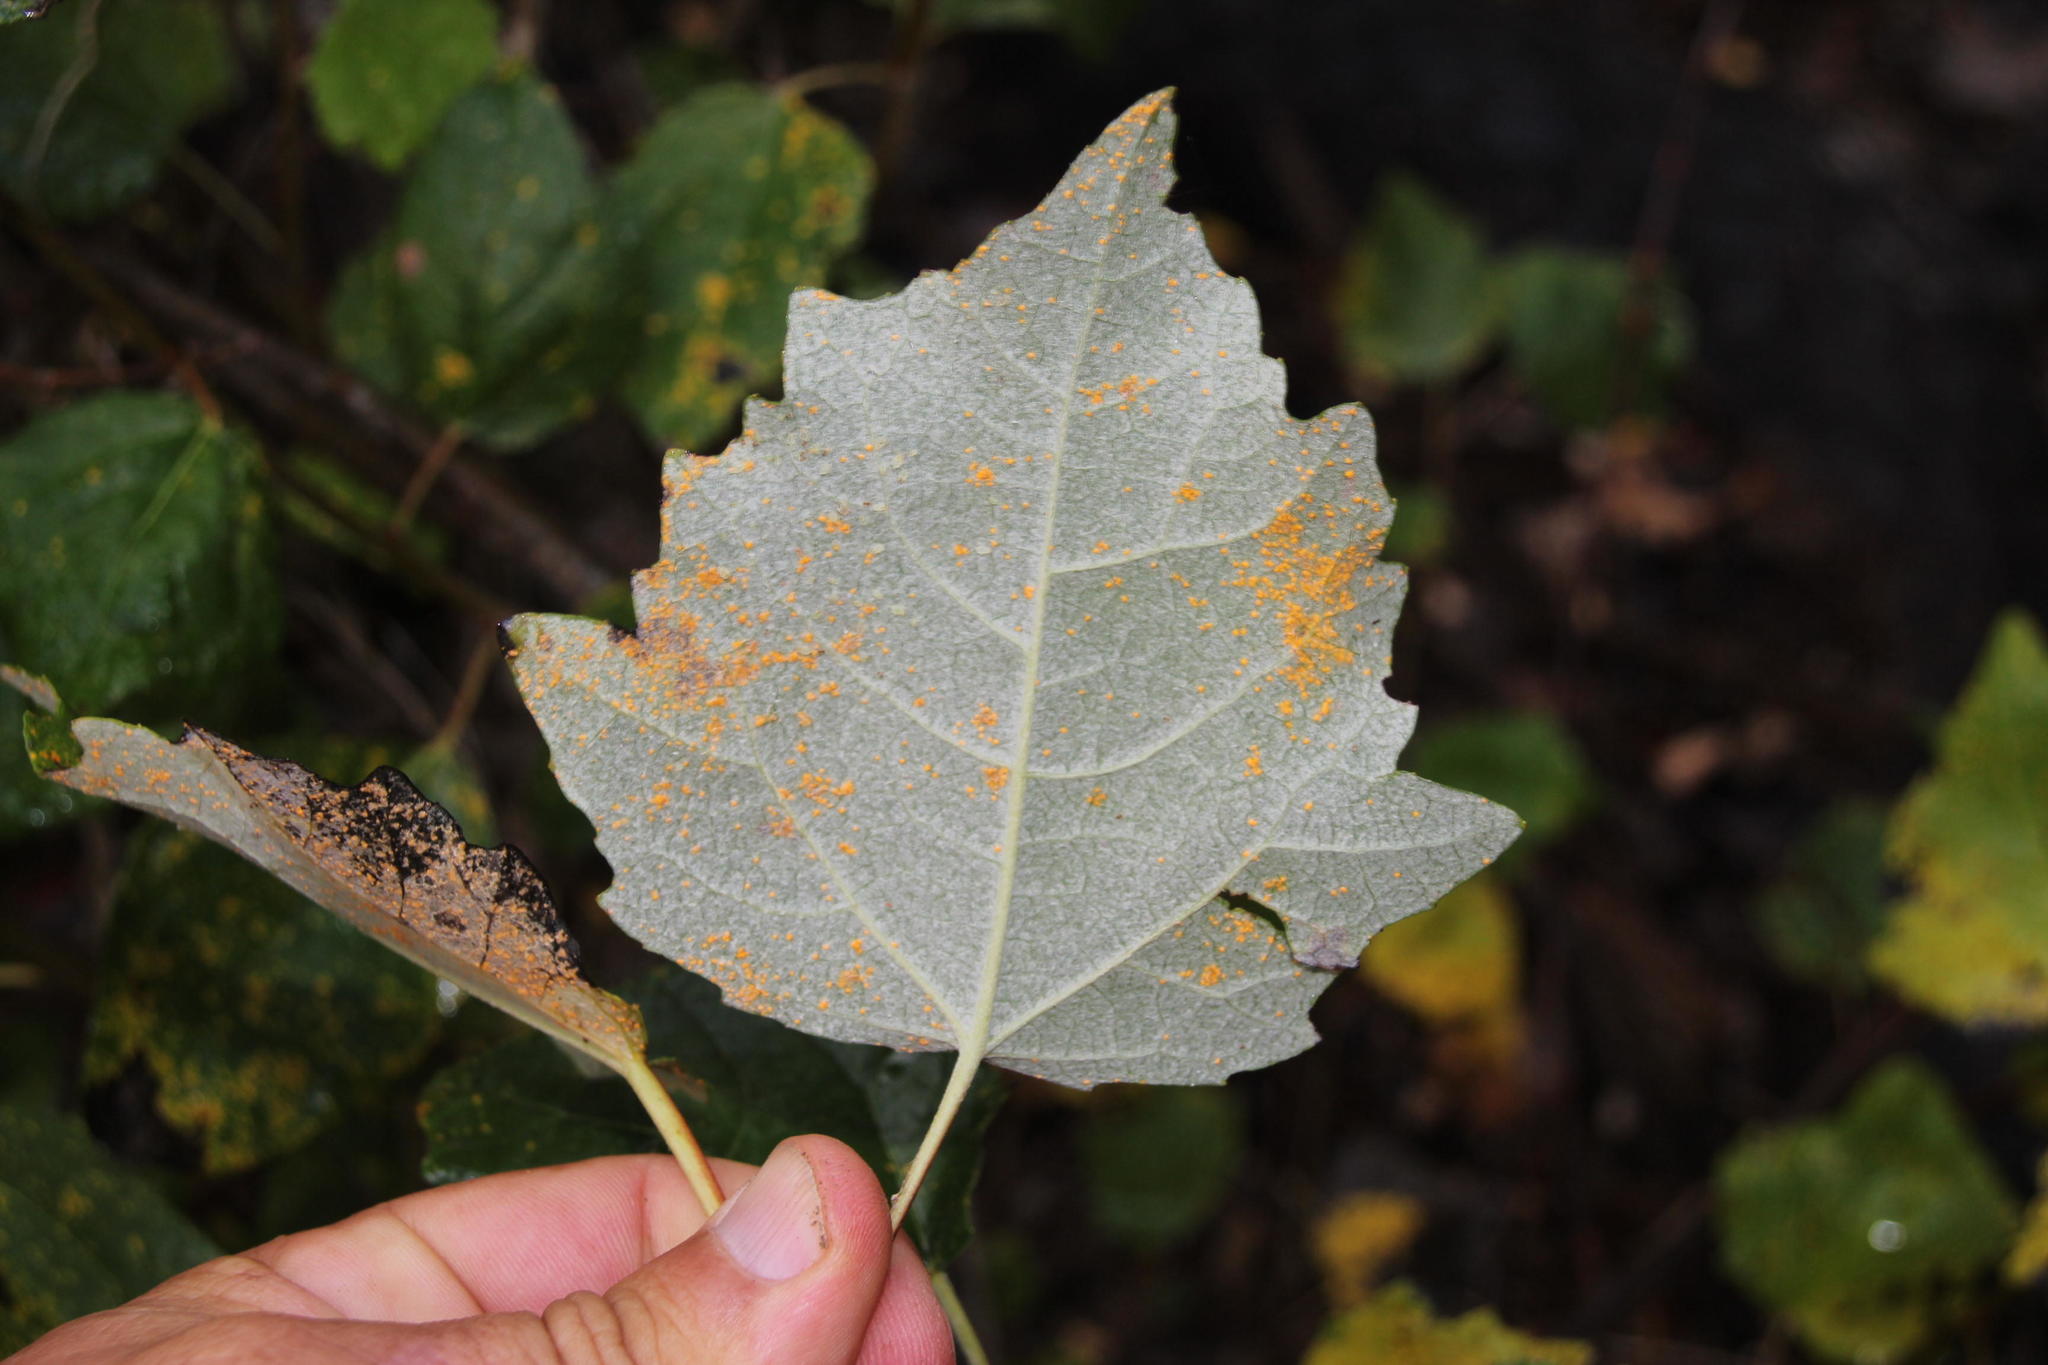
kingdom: Plantae
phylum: Tracheophyta
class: Magnoliopsida
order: Malpighiales
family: Salicaceae
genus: Populus
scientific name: Populus canescens
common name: Gray poplar
